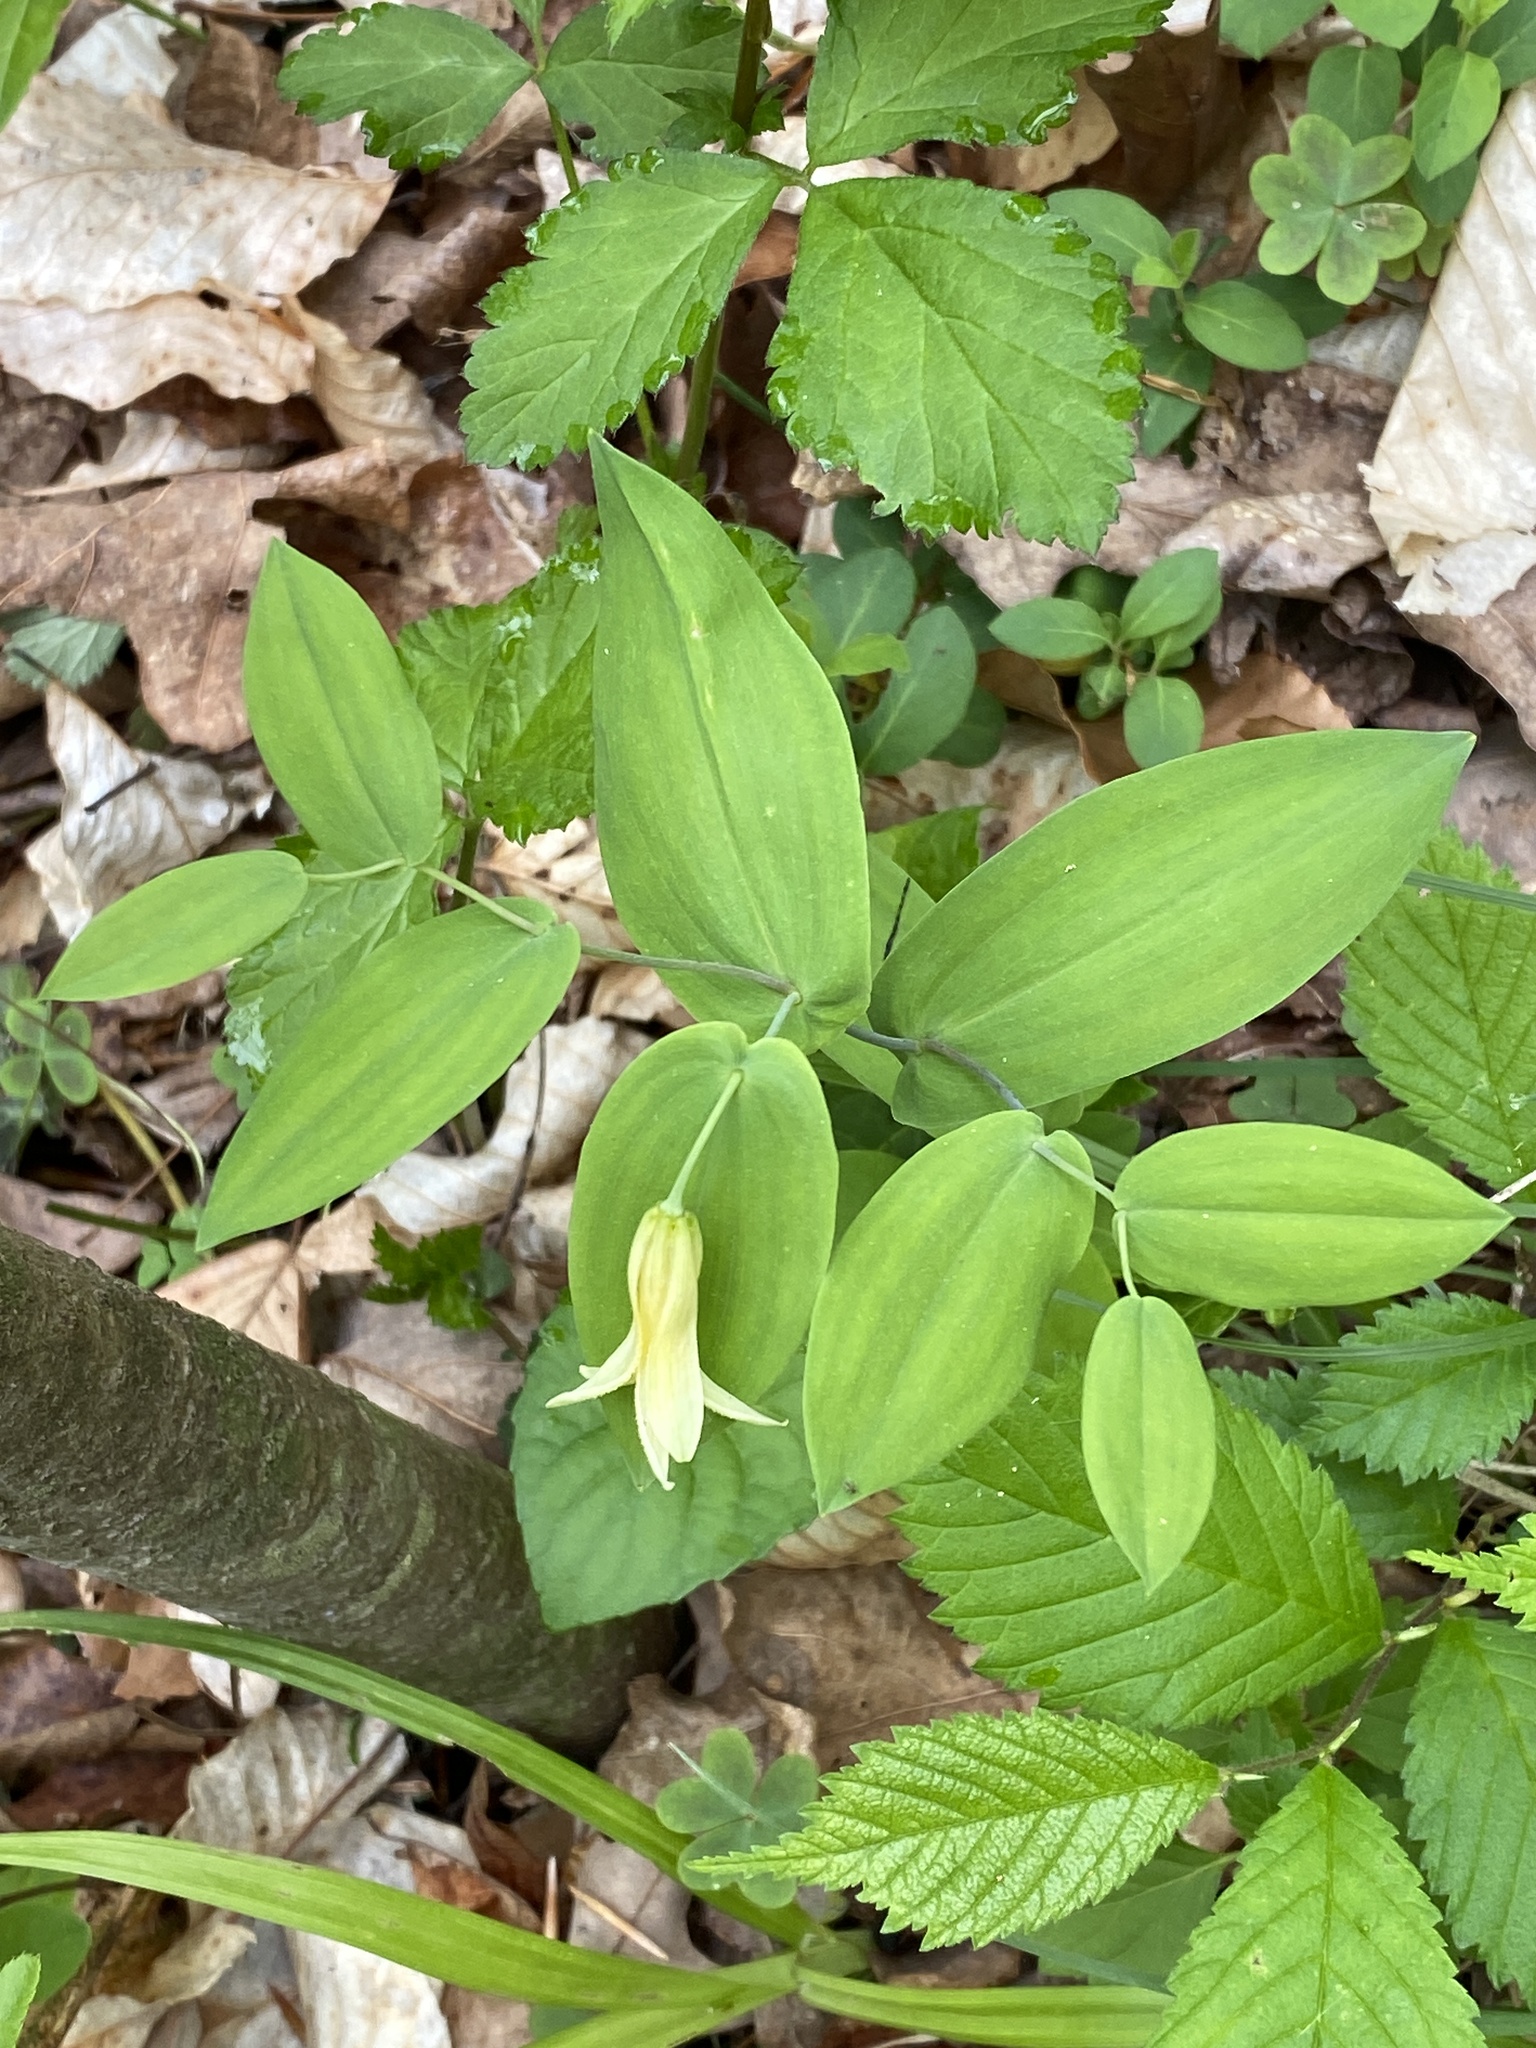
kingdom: Plantae
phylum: Tracheophyta
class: Liliopsida
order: Liliales
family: Colchicaceae
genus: Uvularia
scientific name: Uvularia perfoliata
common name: Perfoliate bellwort
